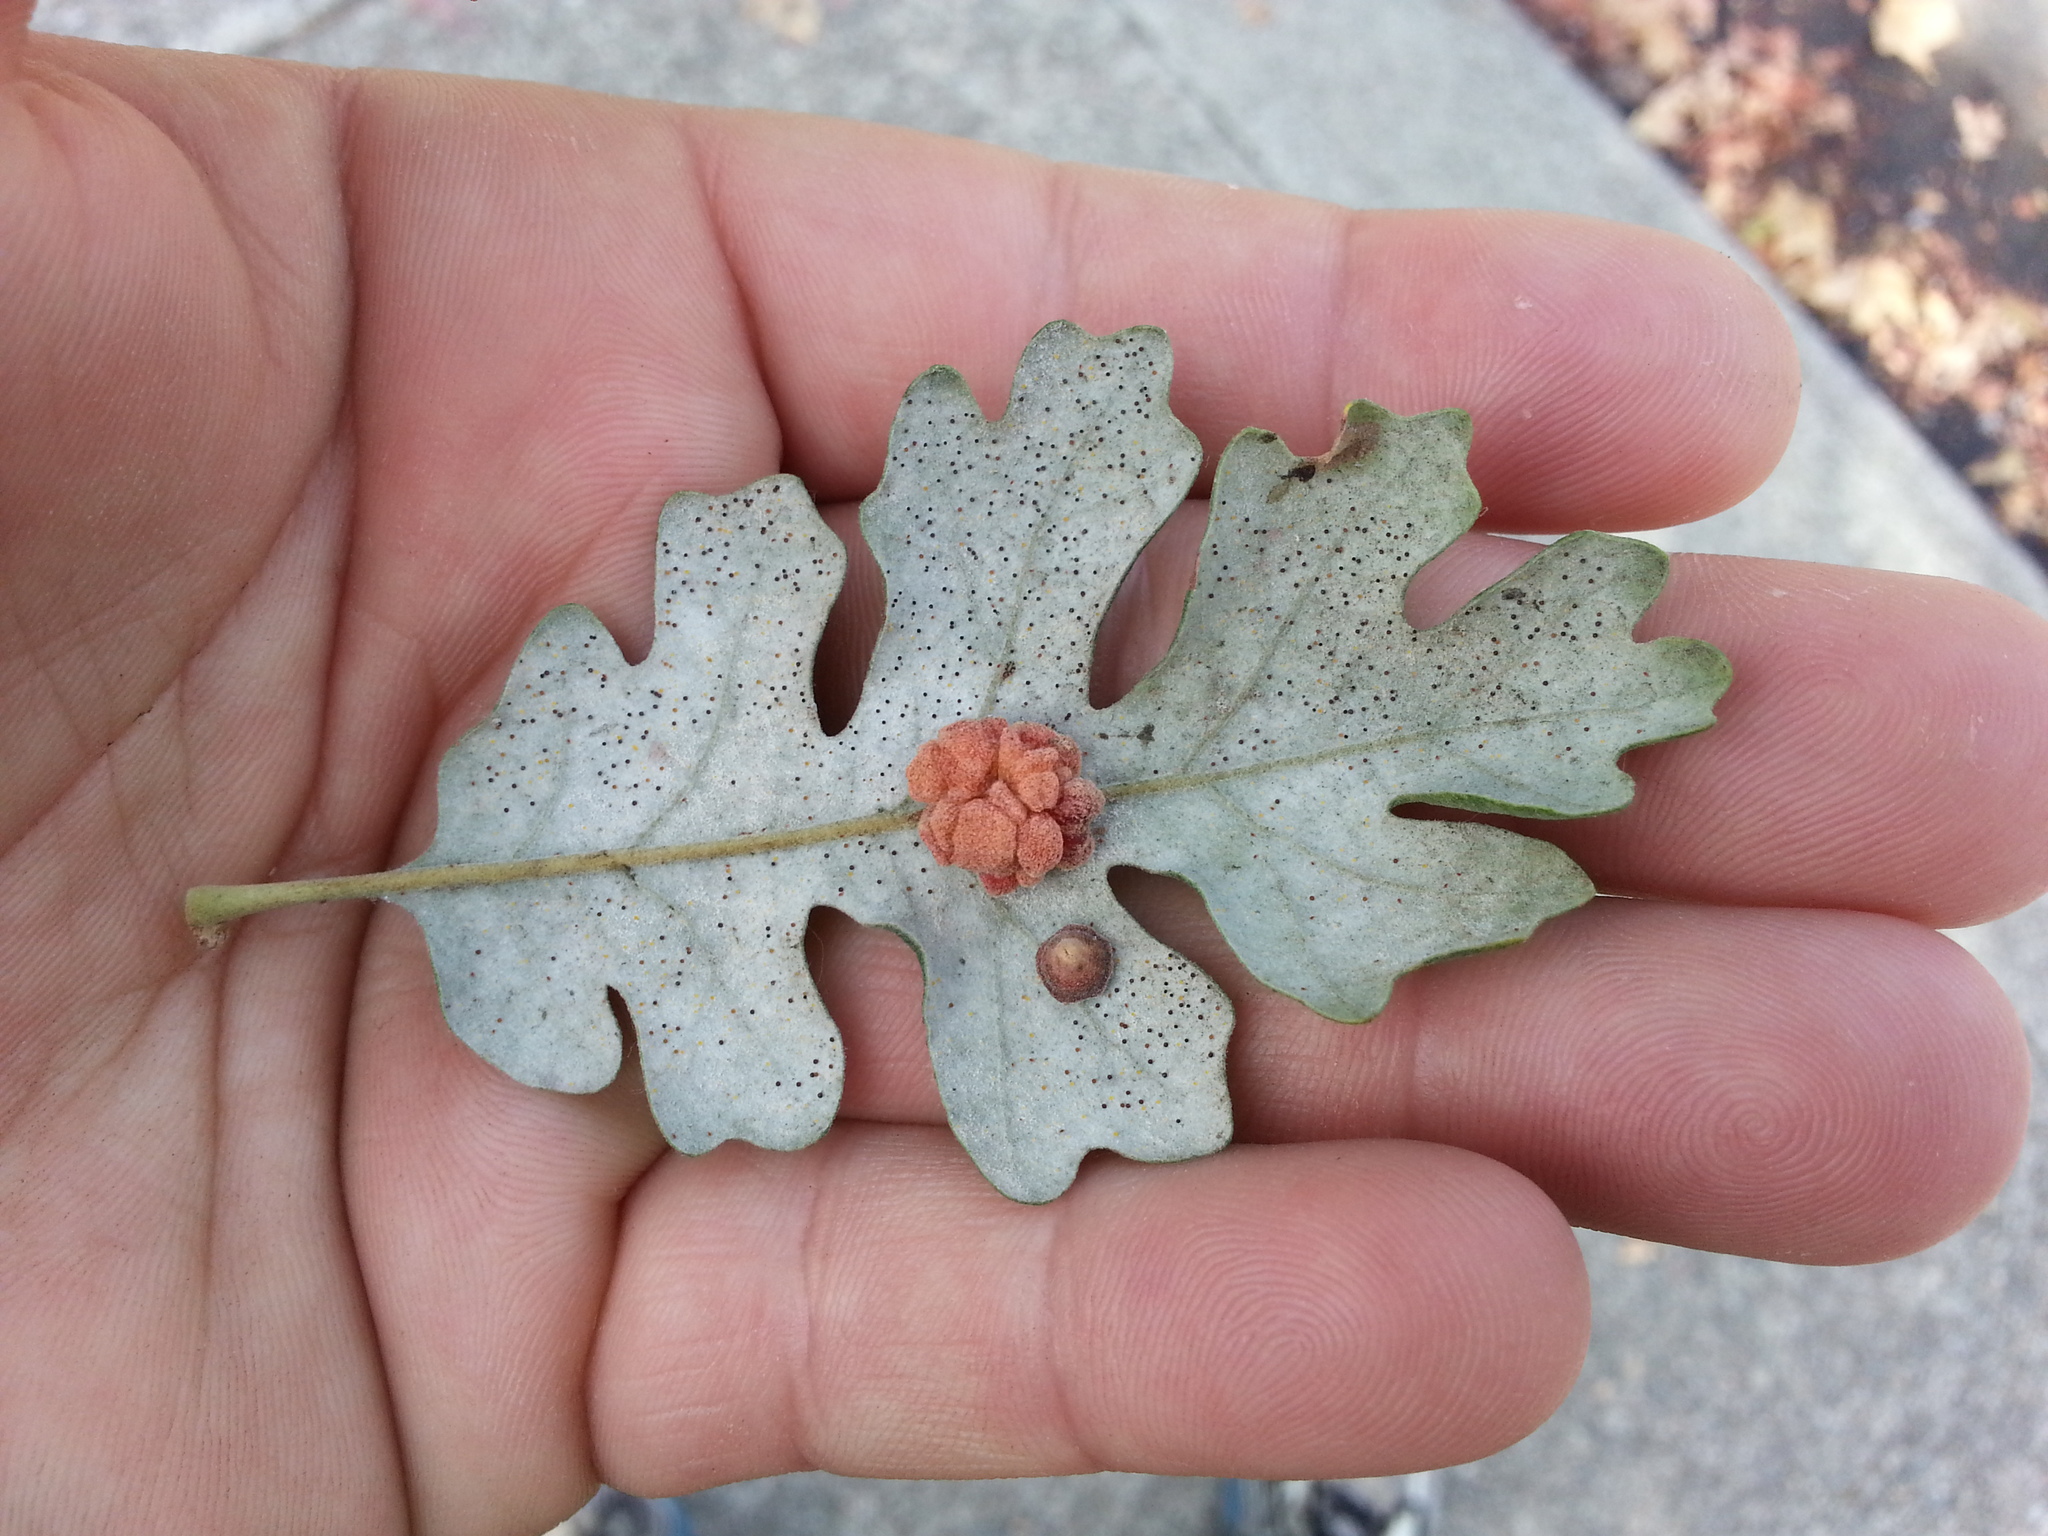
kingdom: Animalia
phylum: Arthropoda
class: Insecta
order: Hymenoptera
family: Cynipidae
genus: Andricus
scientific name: Andricus
